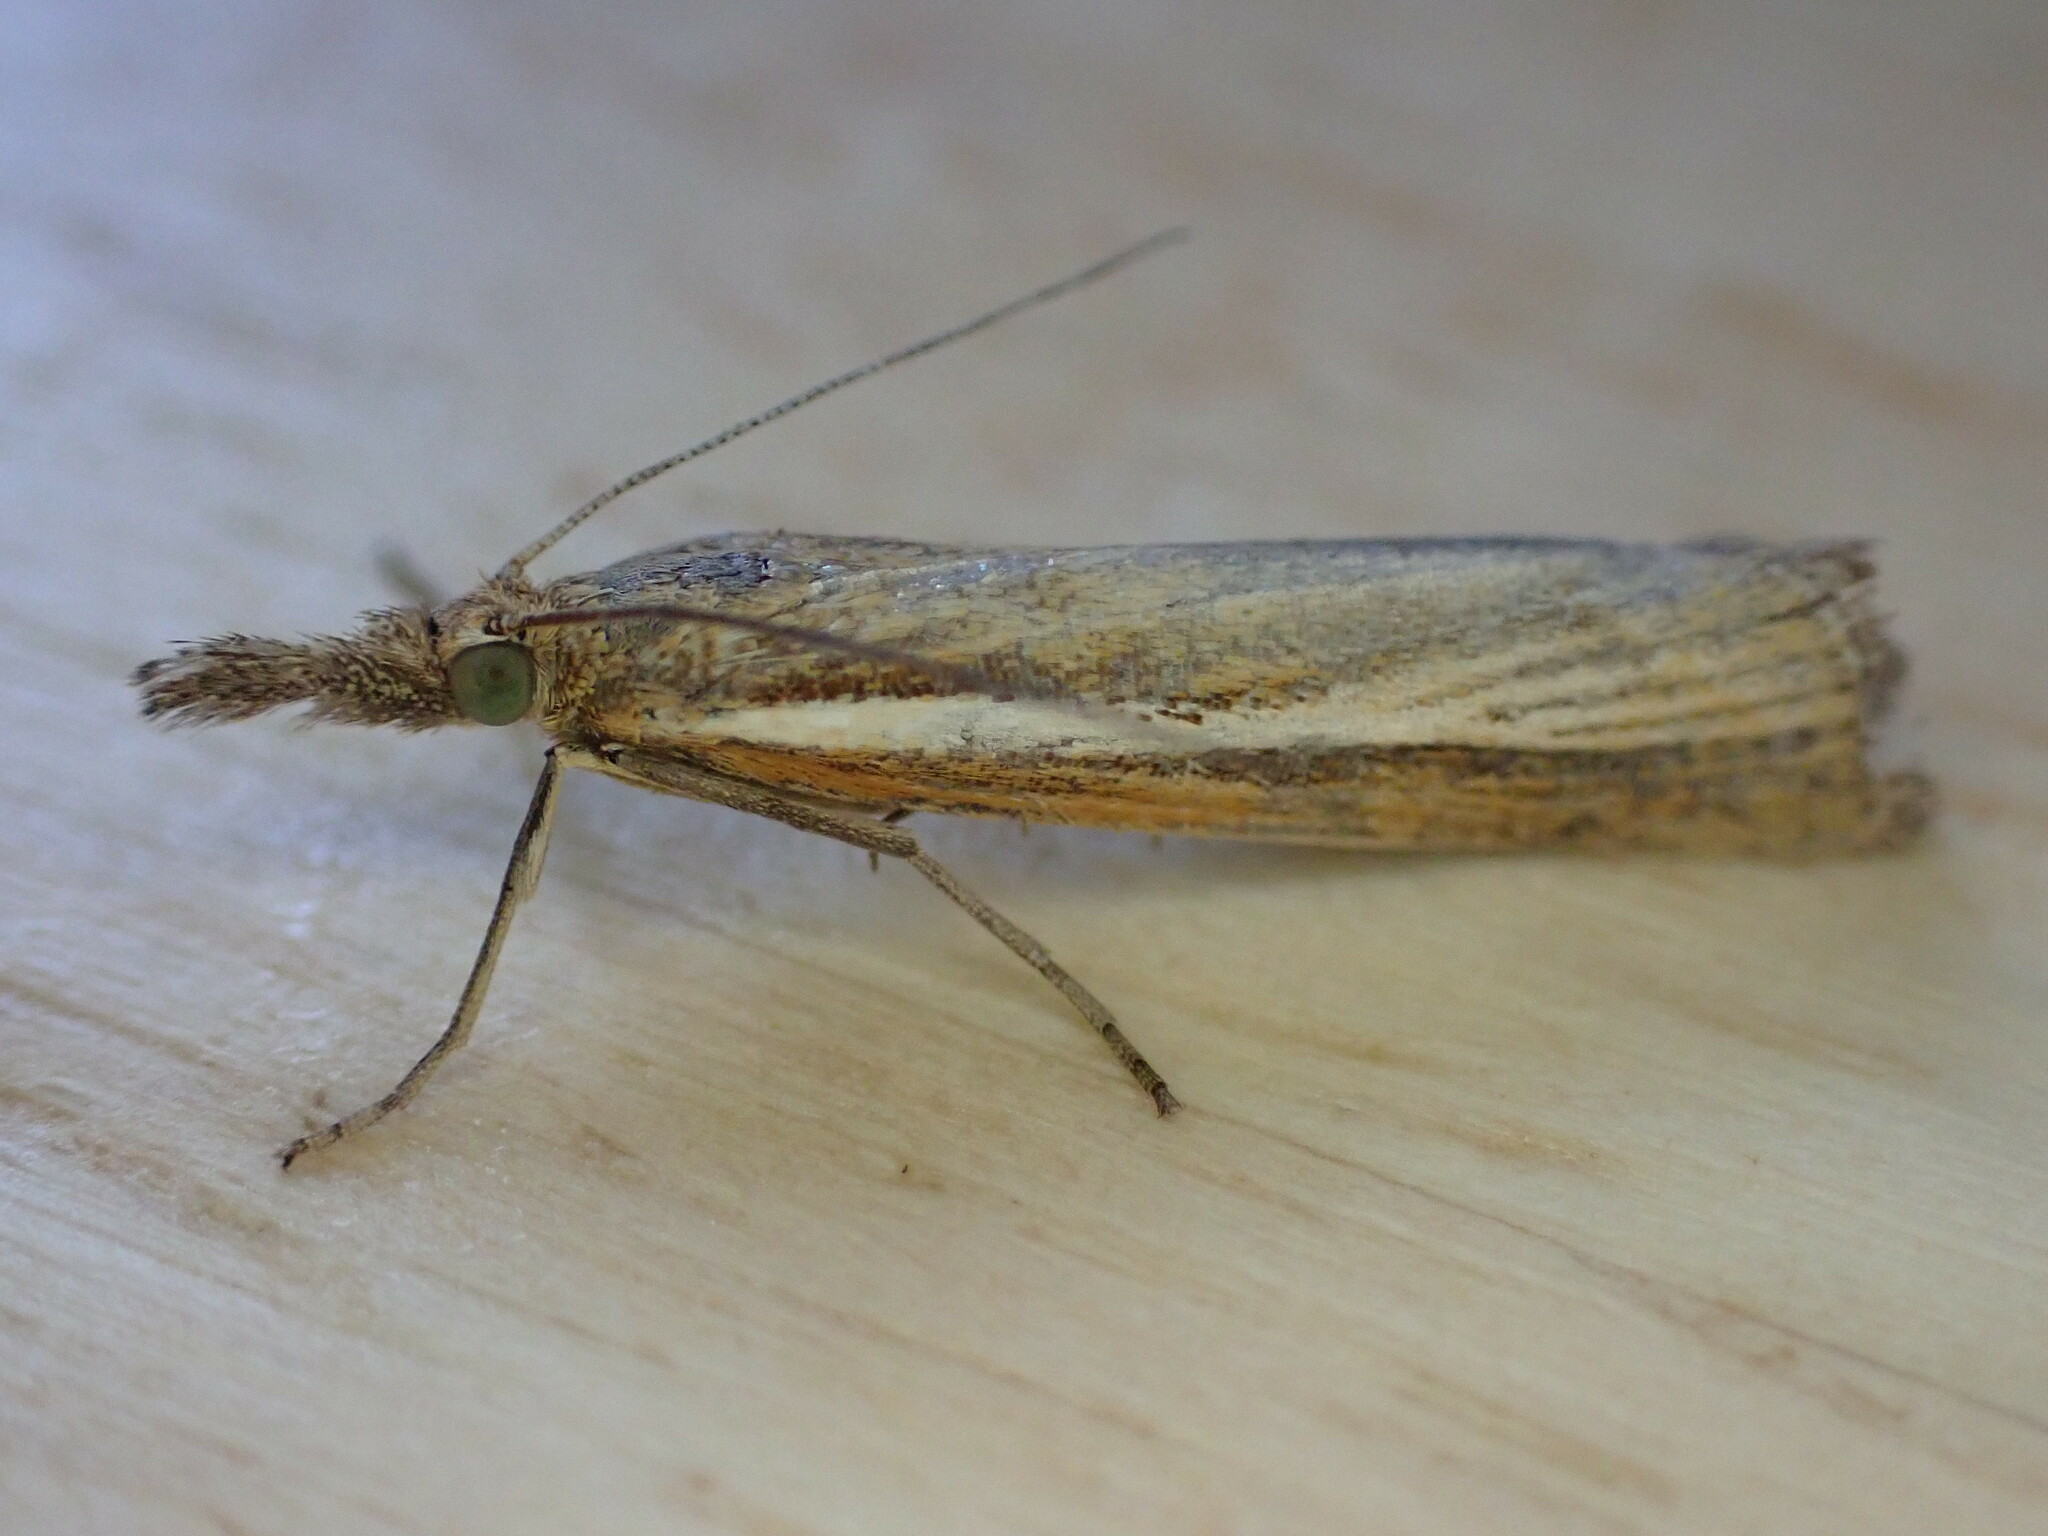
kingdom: Animalia
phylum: Arthropoda
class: Insecta
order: Lepidoptera
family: Crambidae
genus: Agriphila
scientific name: Agriphila tristellus
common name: Common grass-veneer
